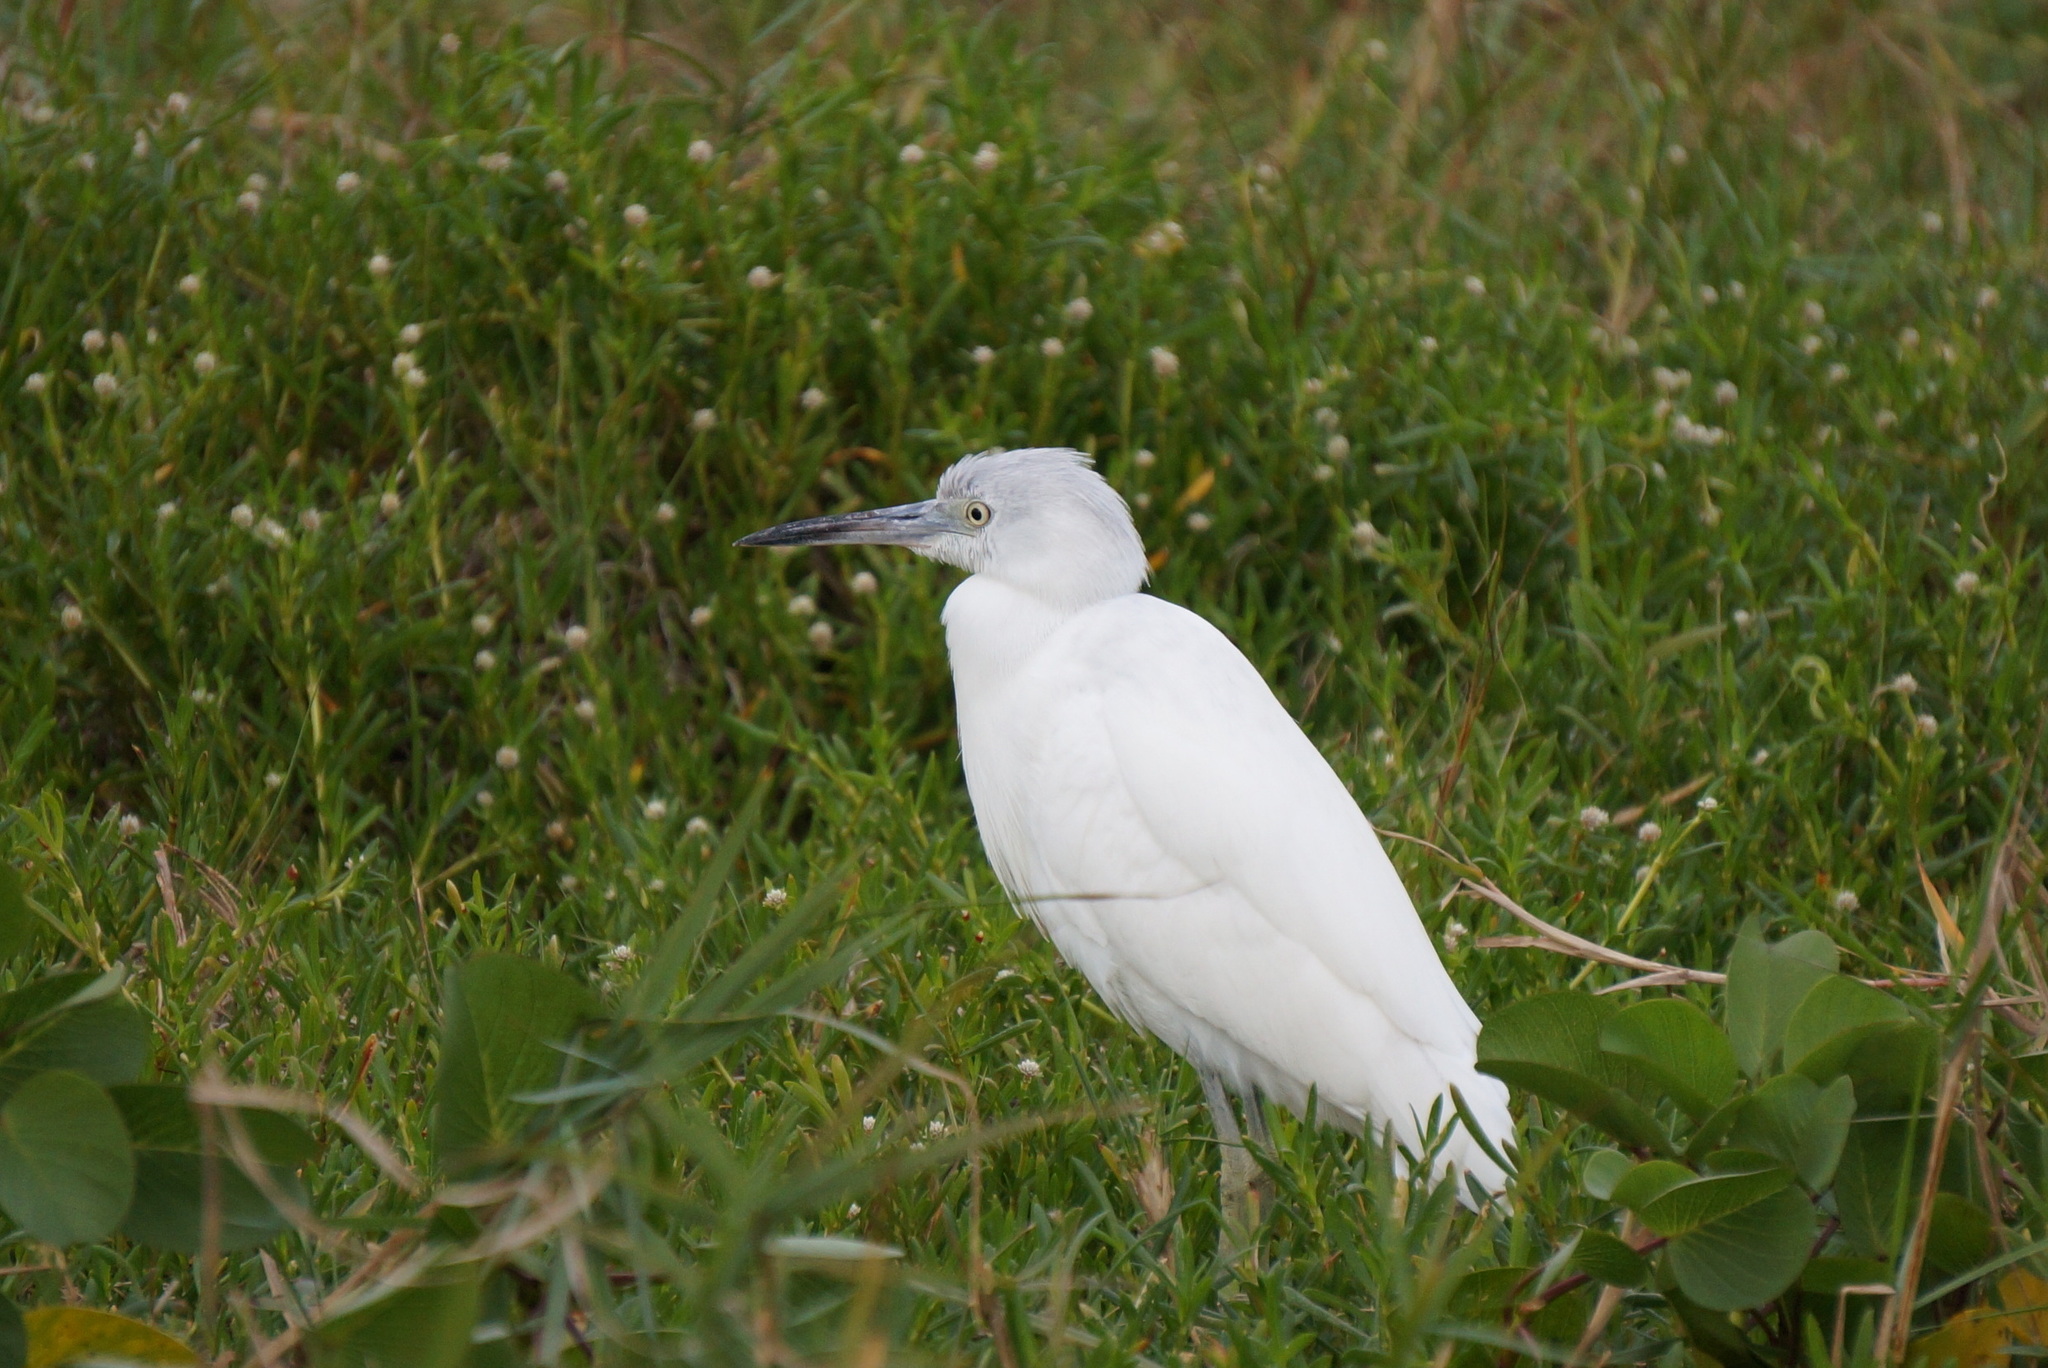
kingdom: Animalia
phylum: Chordata
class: Aves
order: Pelecaniformes
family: Ardeidae
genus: Egretta
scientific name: Egretta caerulea
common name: Little blue heron
